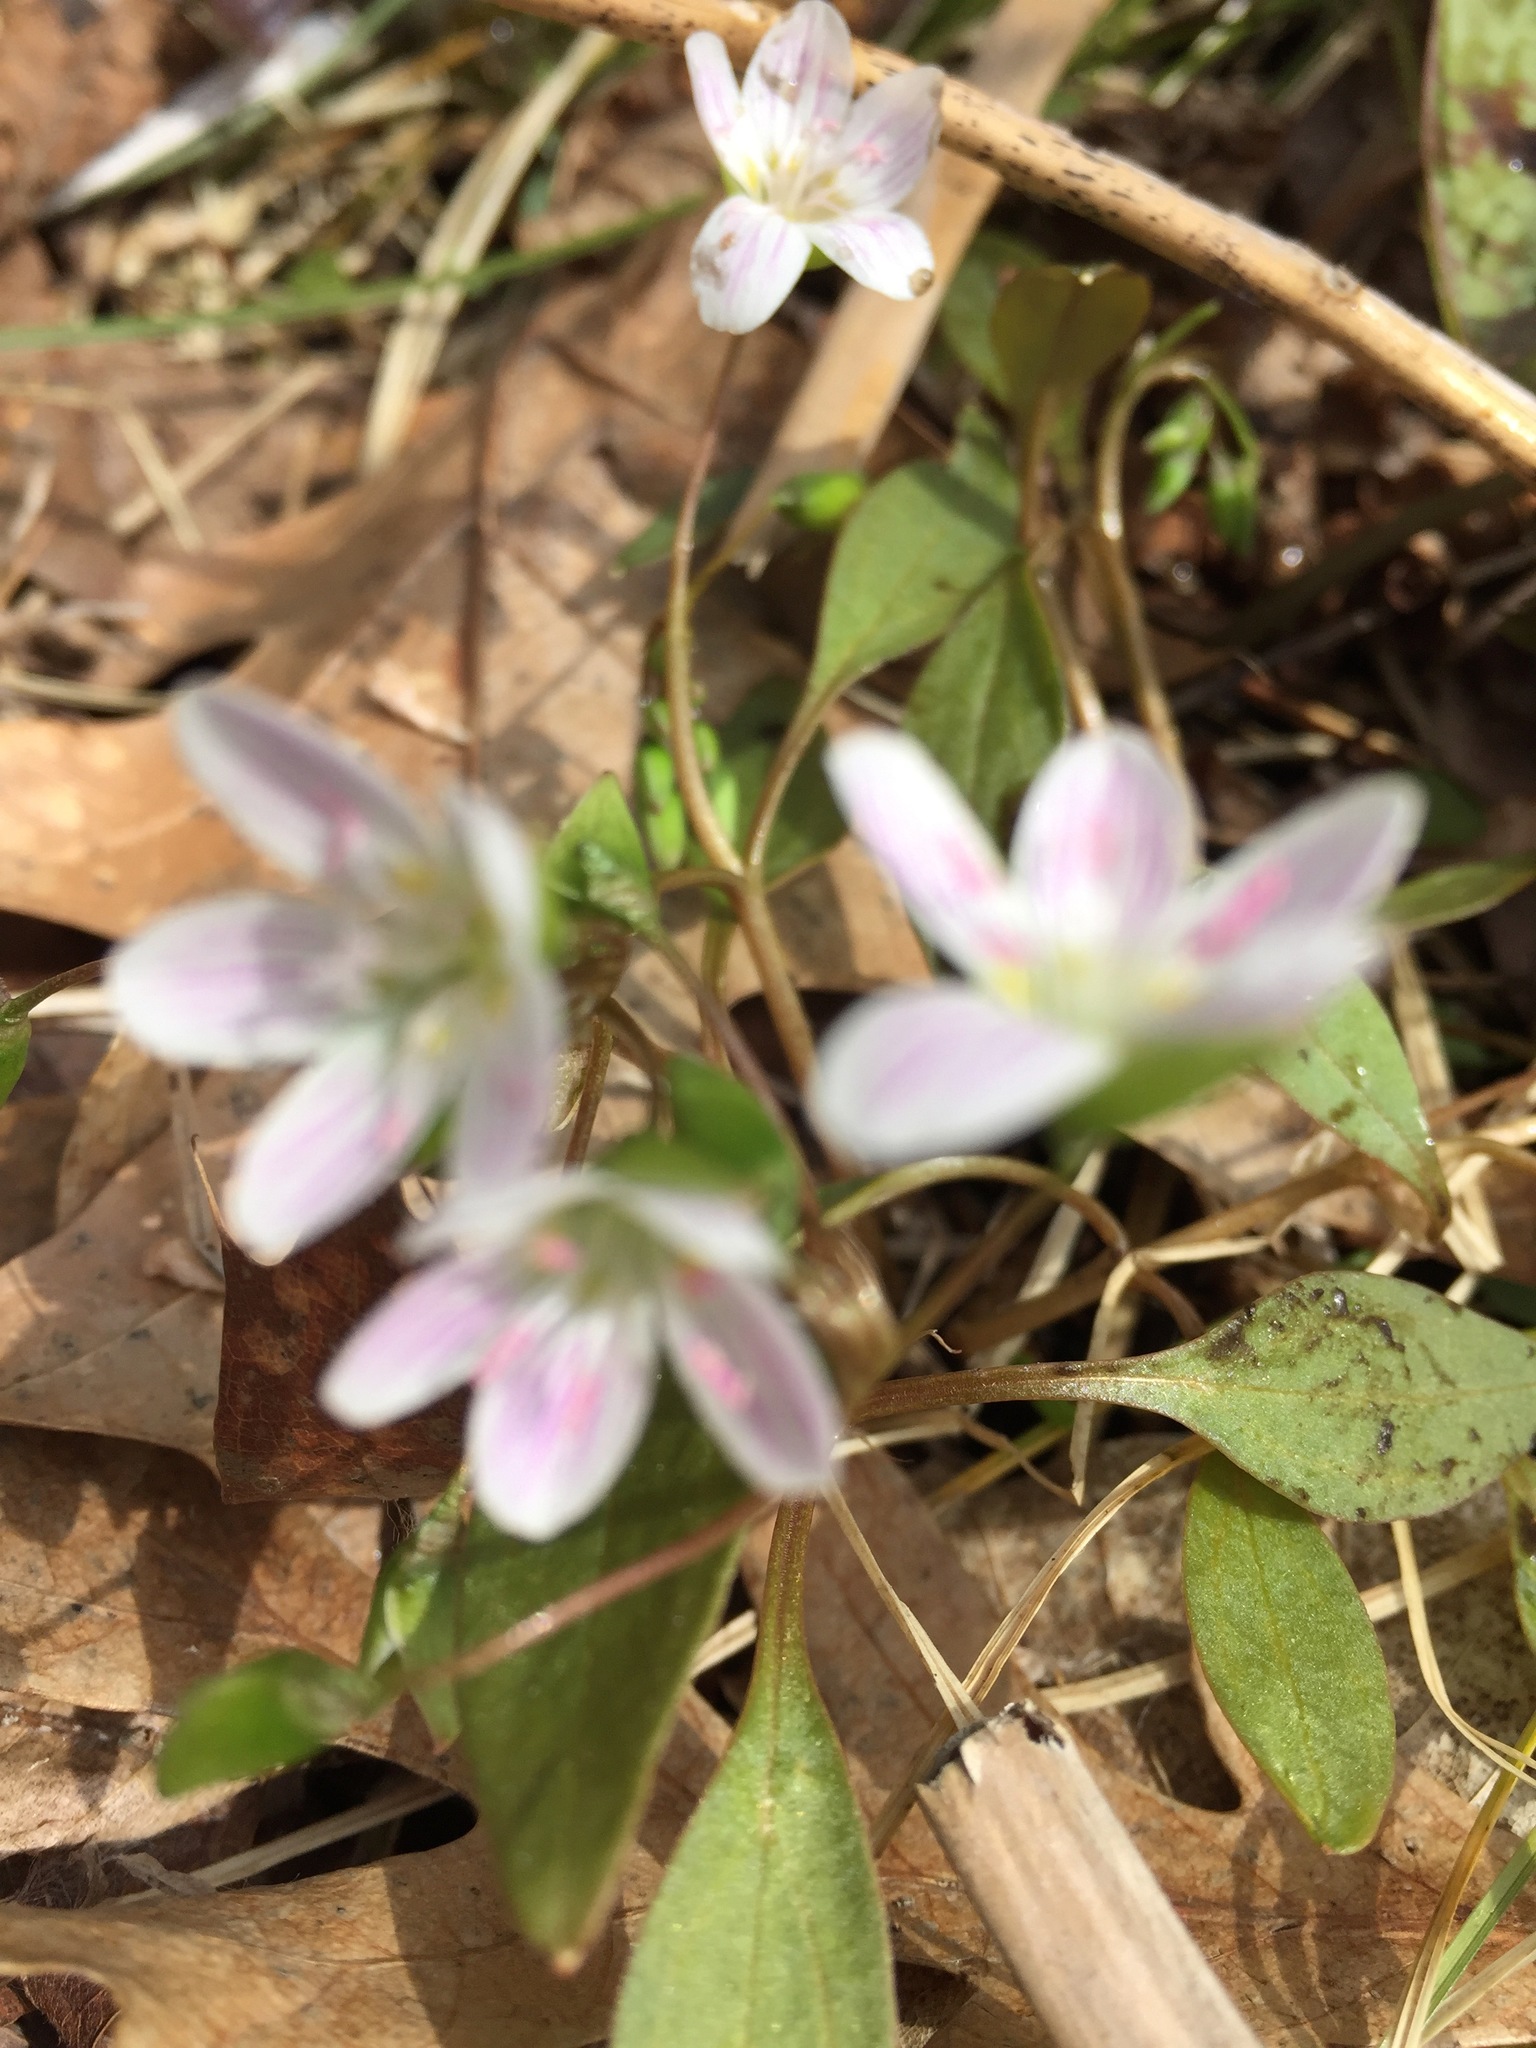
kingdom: Plantae
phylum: Tracheophyta
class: Magnoliopsida
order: Caryophyllales
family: Montiaceae
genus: Claytonia
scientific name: Claytonia caroliniana
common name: Carolina spring beauty
